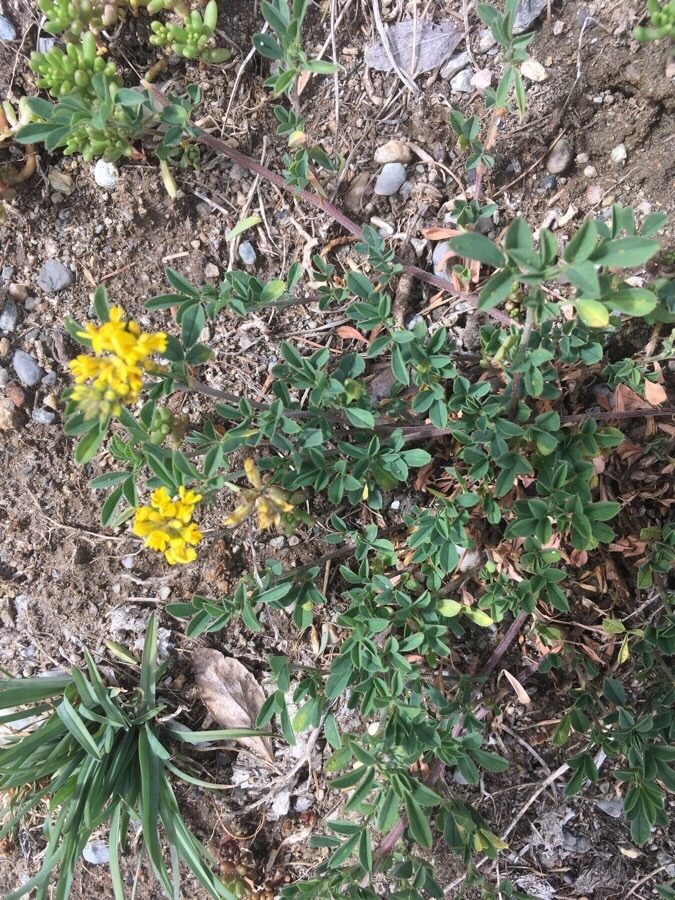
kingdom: Plantae
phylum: Tracheophyta
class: Magnoliopsida
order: Fabales
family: Fabaceae
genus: Medicago
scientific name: Medicago falcata
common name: Sickle medick
